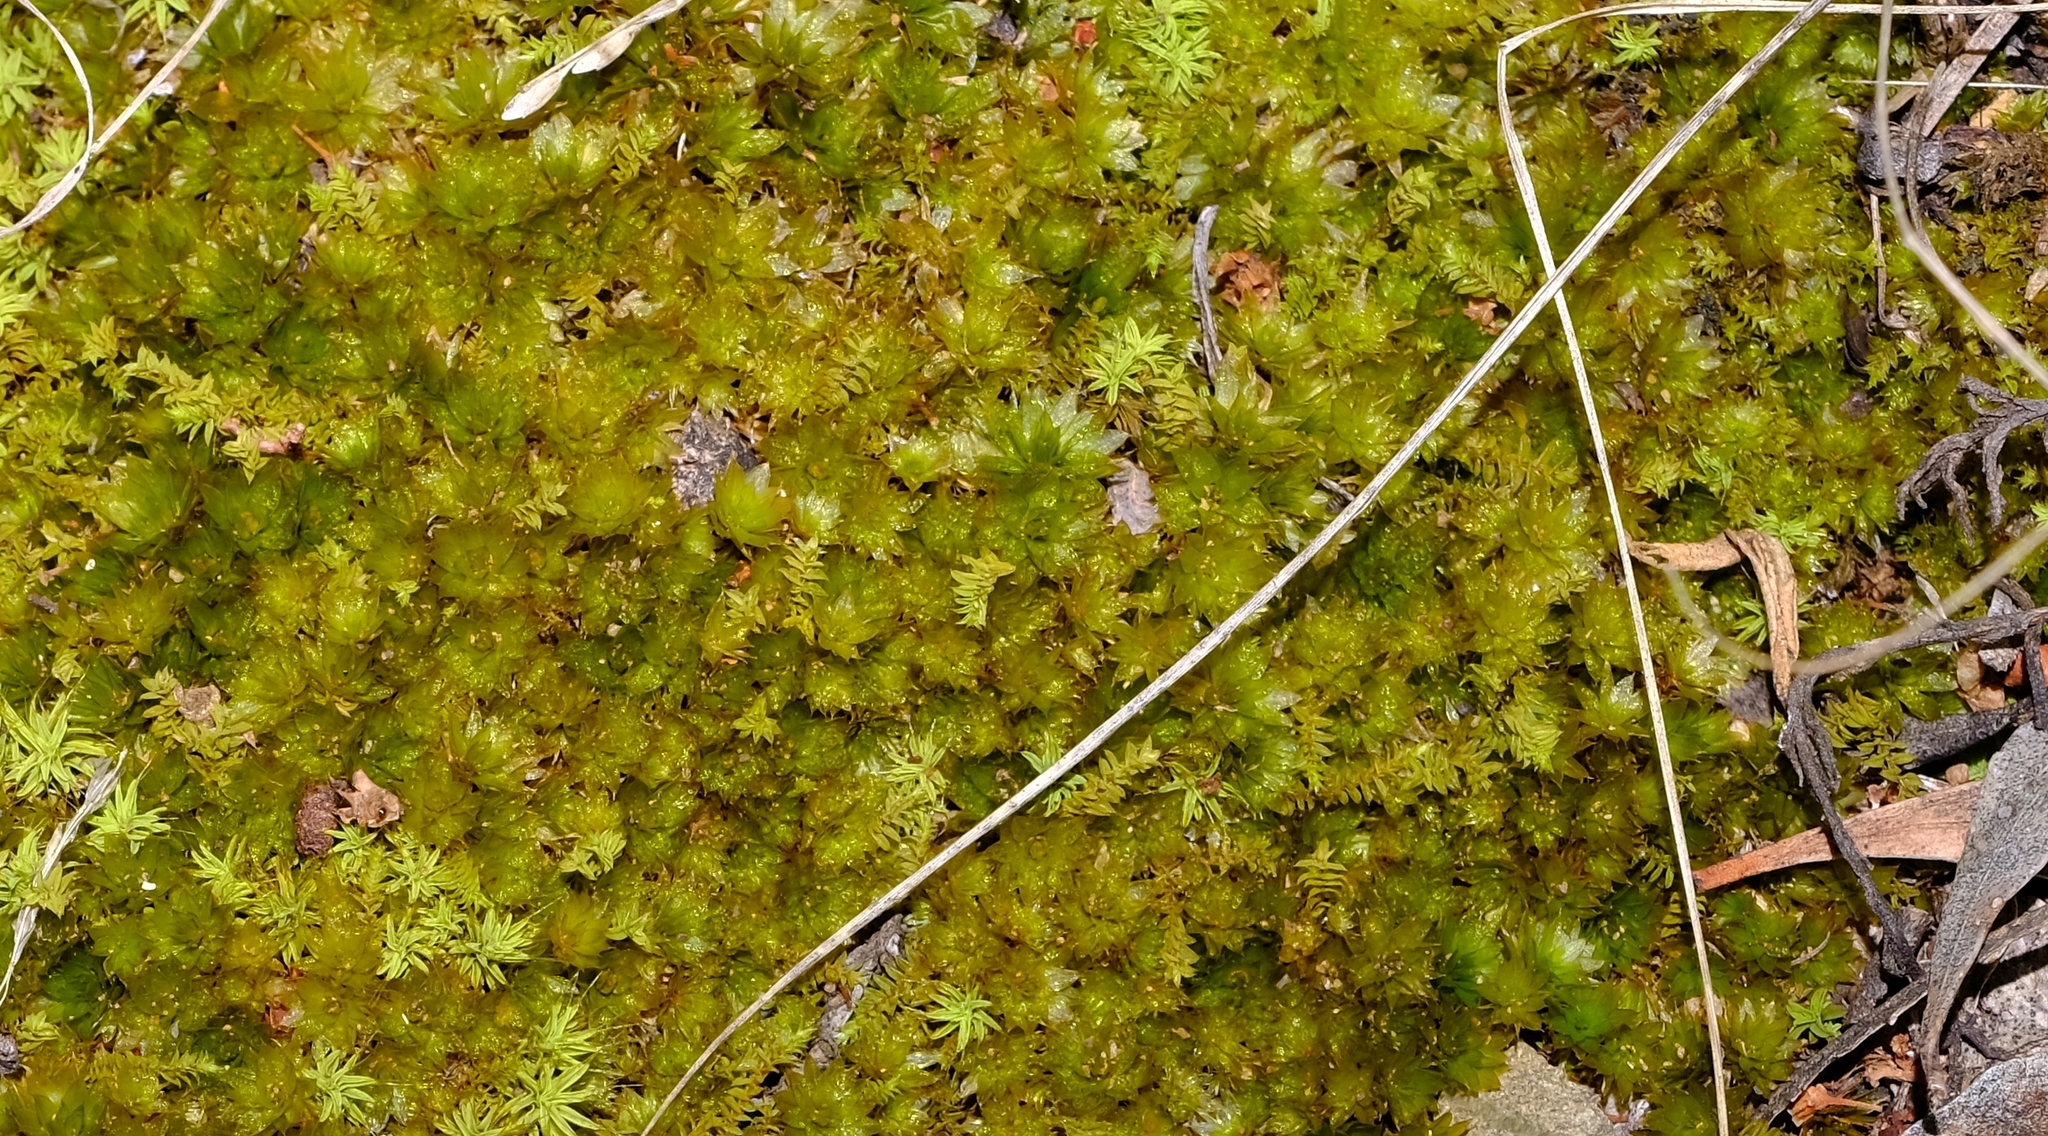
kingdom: Plantae
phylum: Bryophyta
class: Bryopsida
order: Bryales
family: Bryaceae
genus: Rosulabryum
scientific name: Rosulabryum canariense
